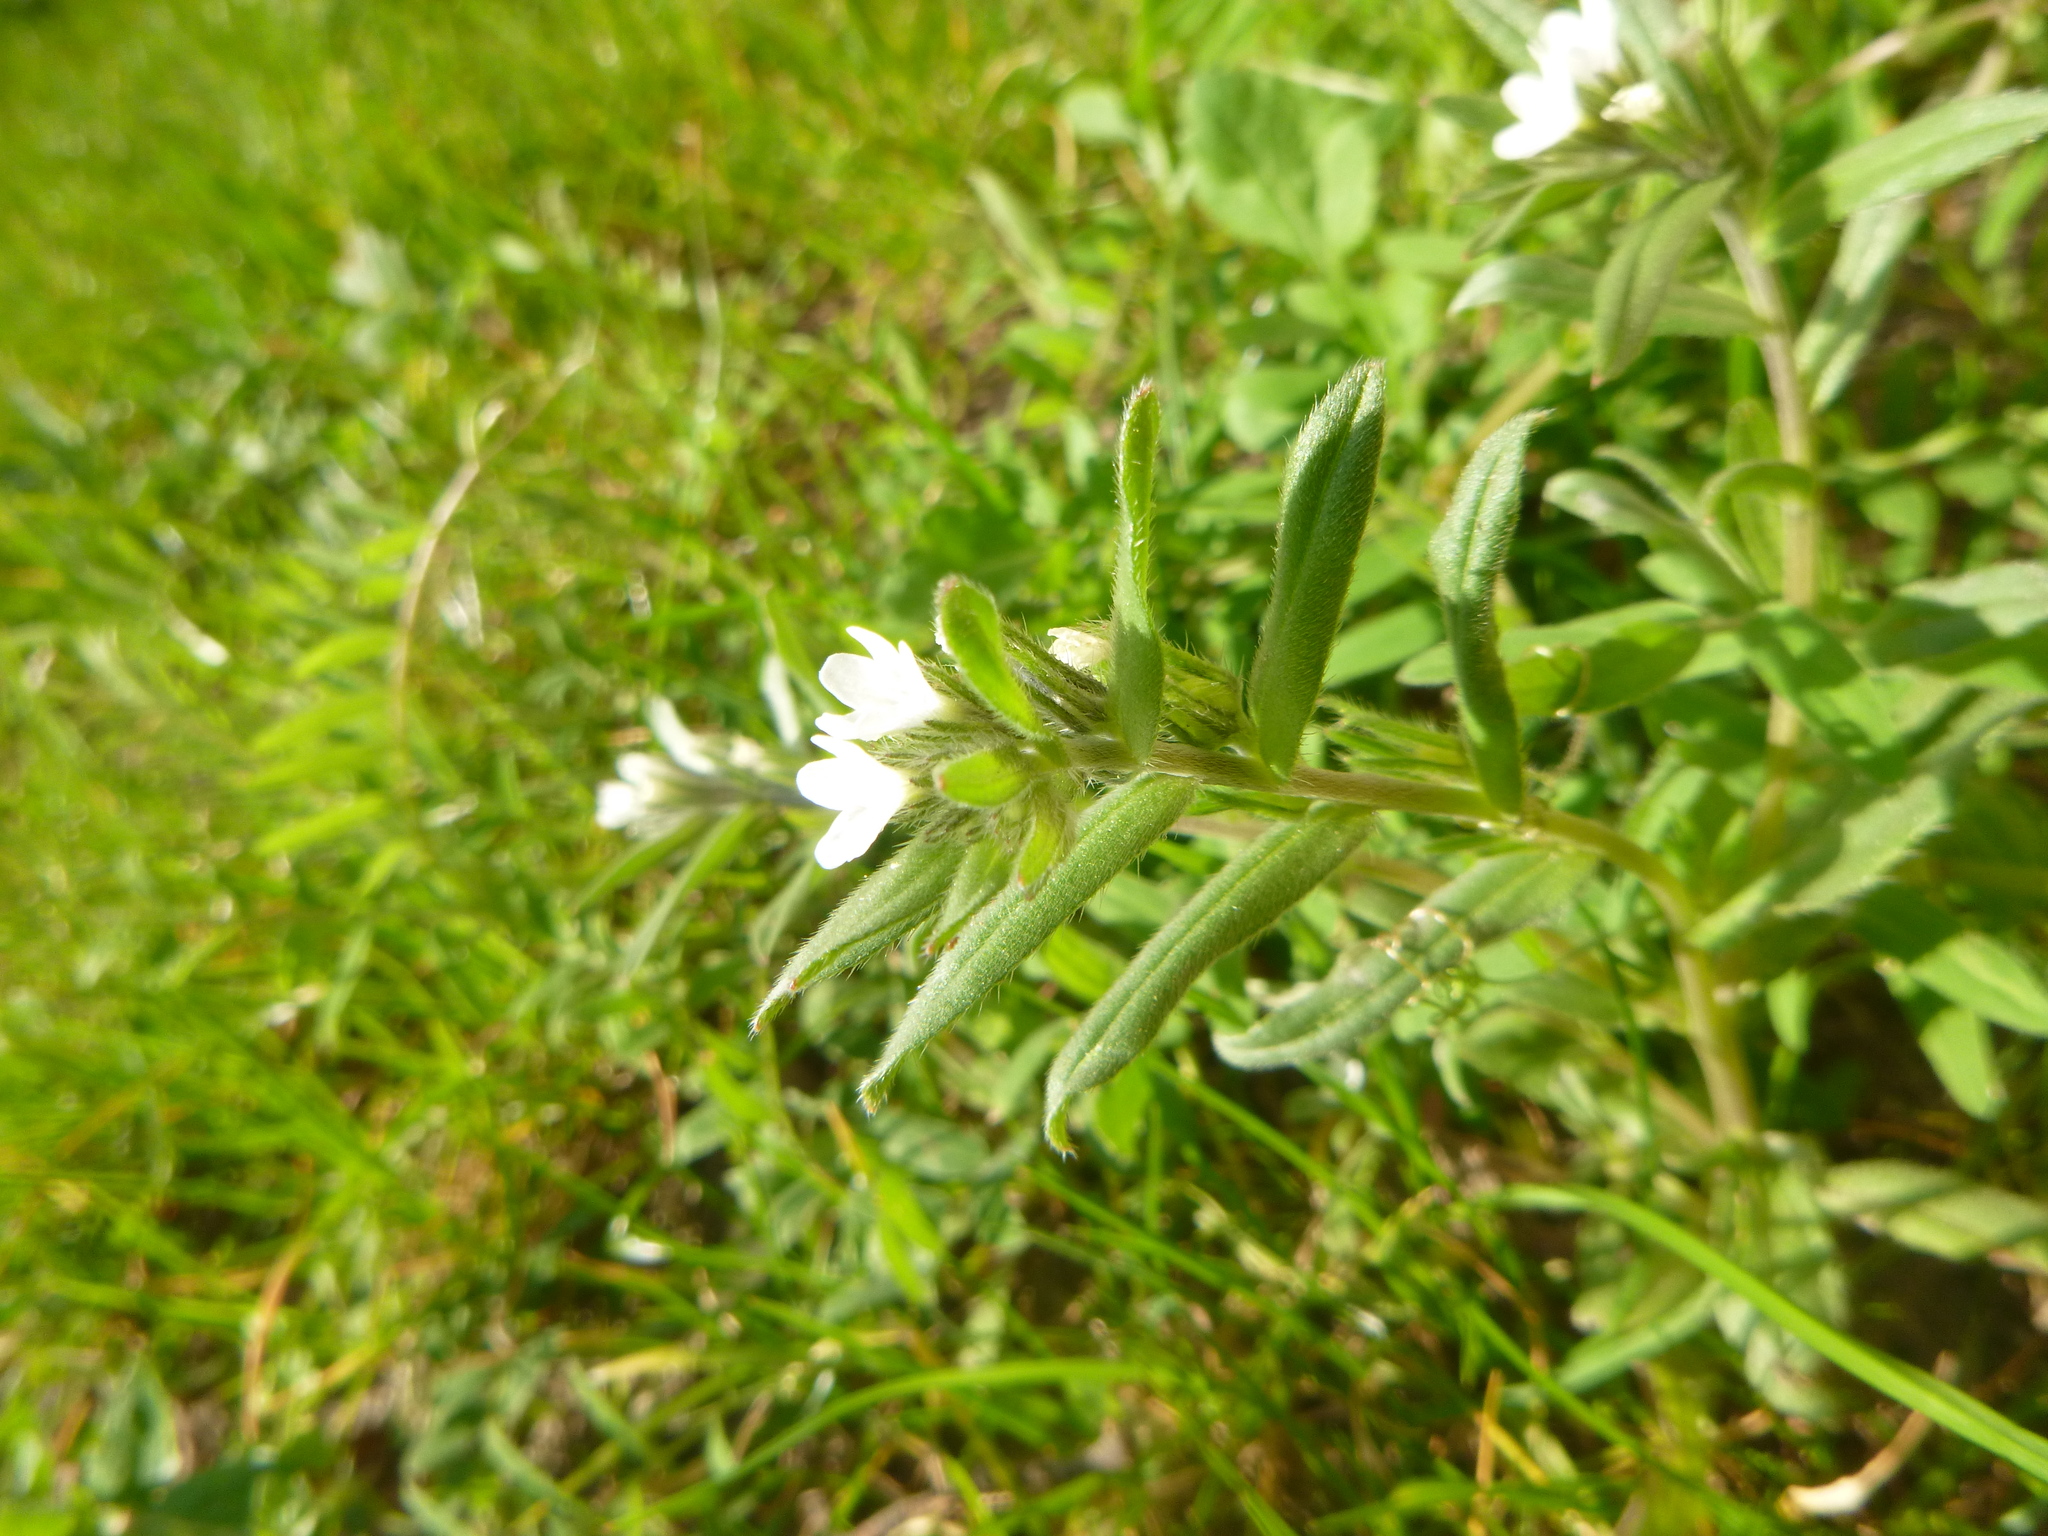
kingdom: Plantae
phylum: Tracheophyta
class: Magnoliopsida
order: Boraginales
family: Boraginaceae
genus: Buglossoides
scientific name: Buglossoides arvensis
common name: Corn gromwell
